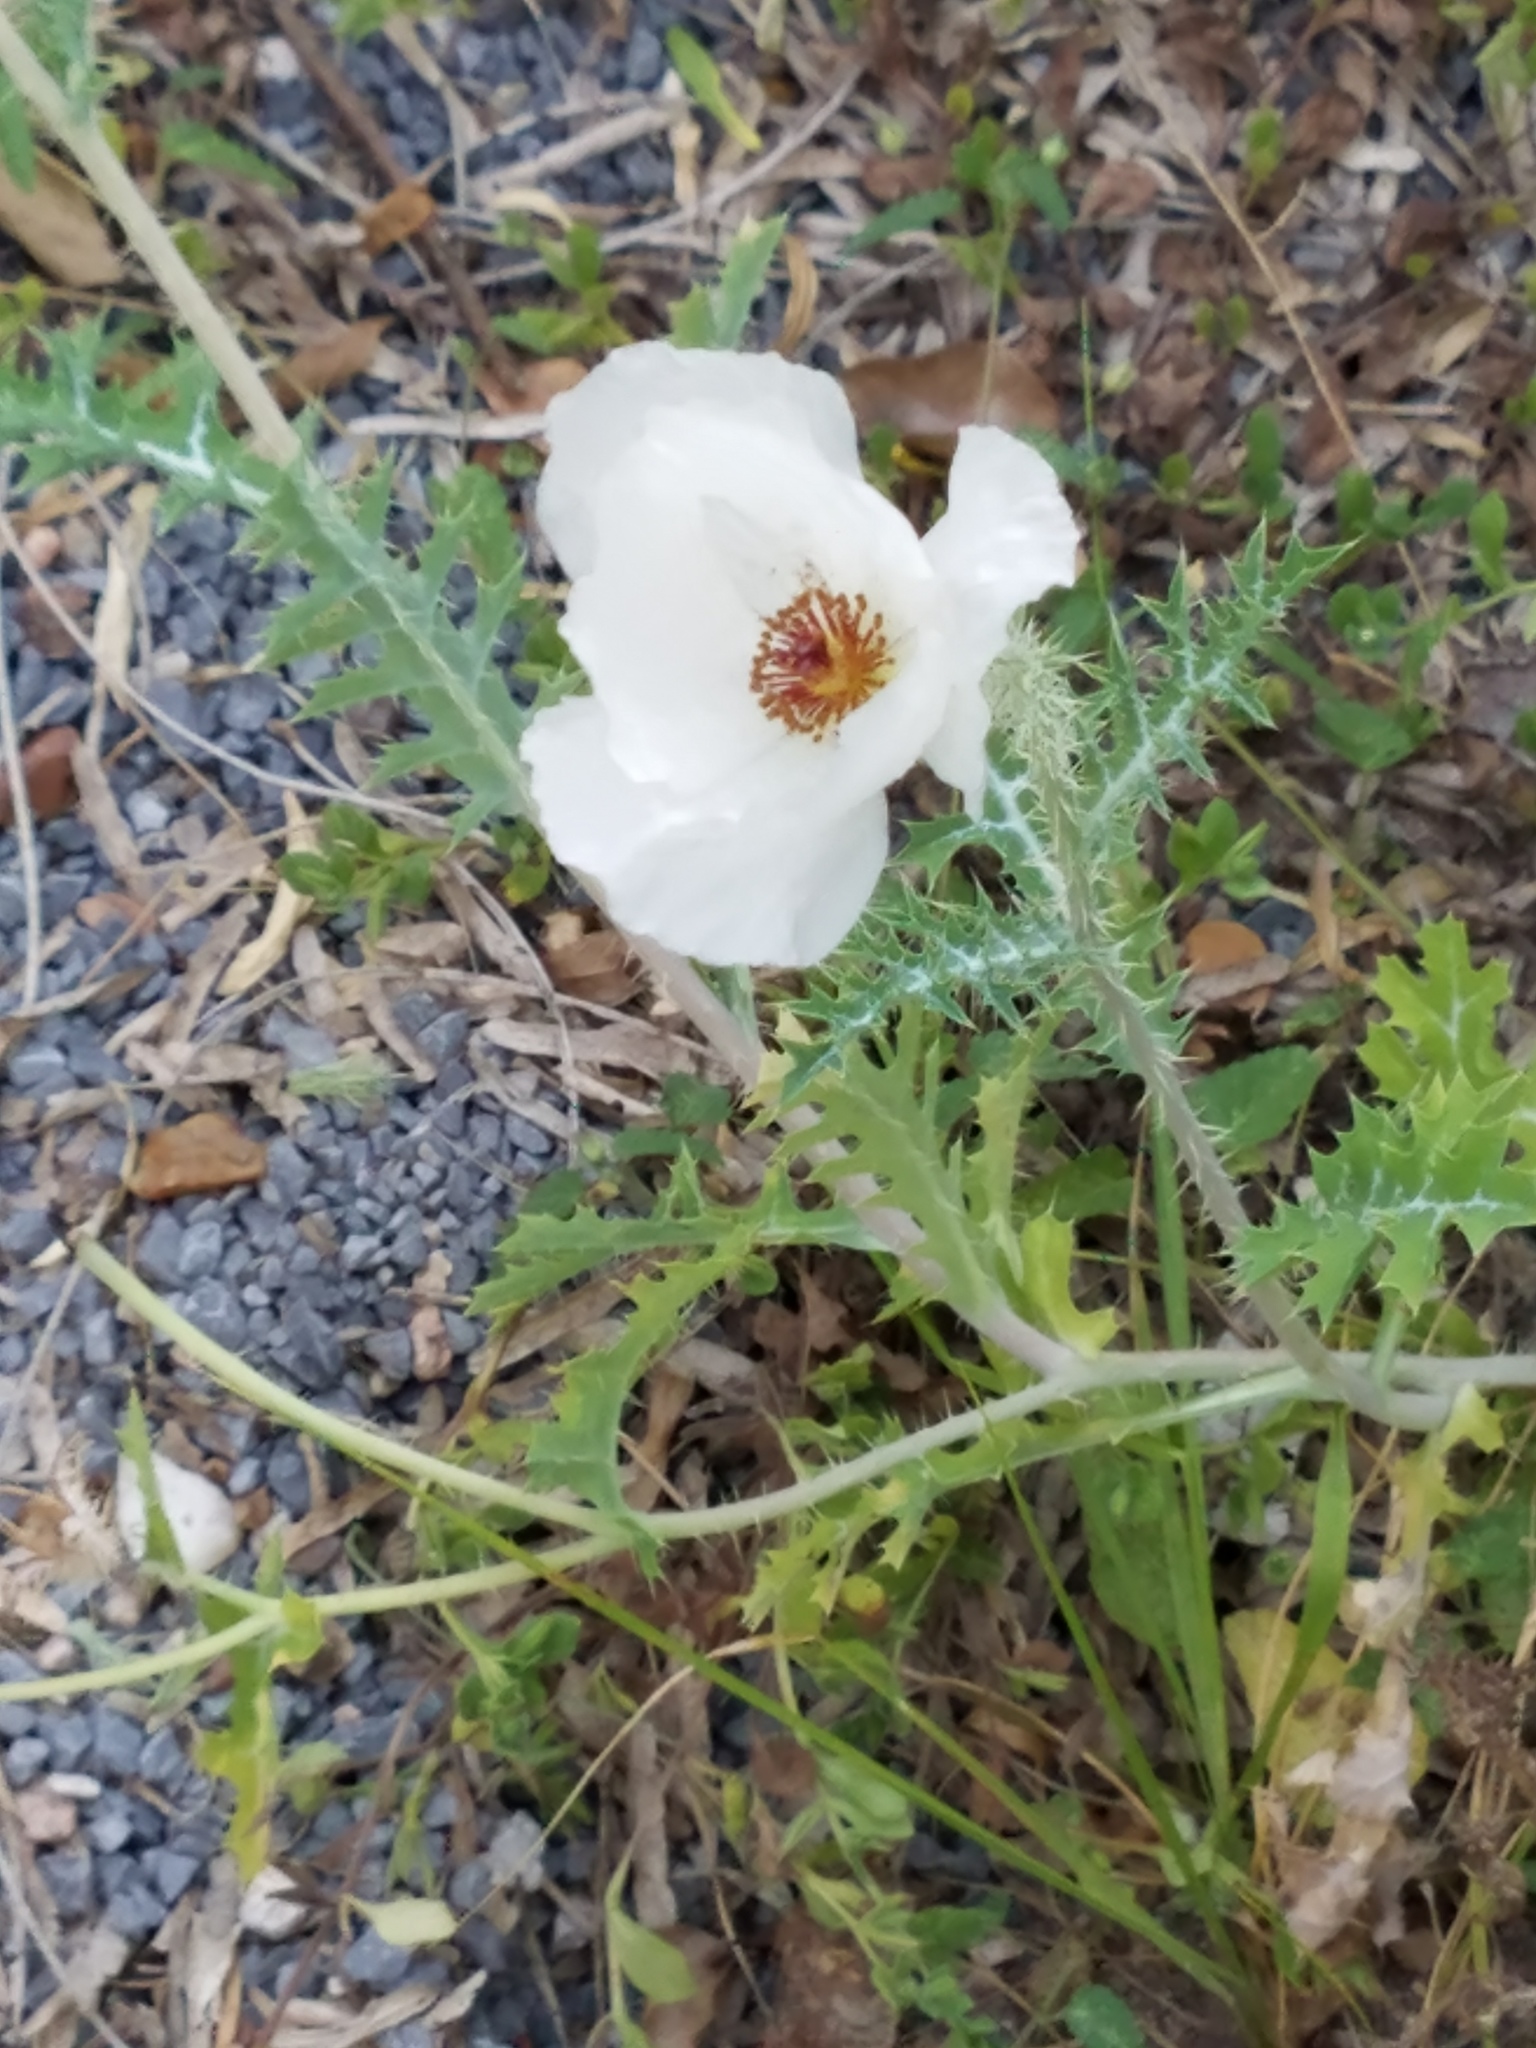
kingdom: Plantae
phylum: Tracheophyta
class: Magnoliopsida
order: Ranunculales
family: Papaveraceae
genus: Argemone
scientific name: Argemone sanguinea
